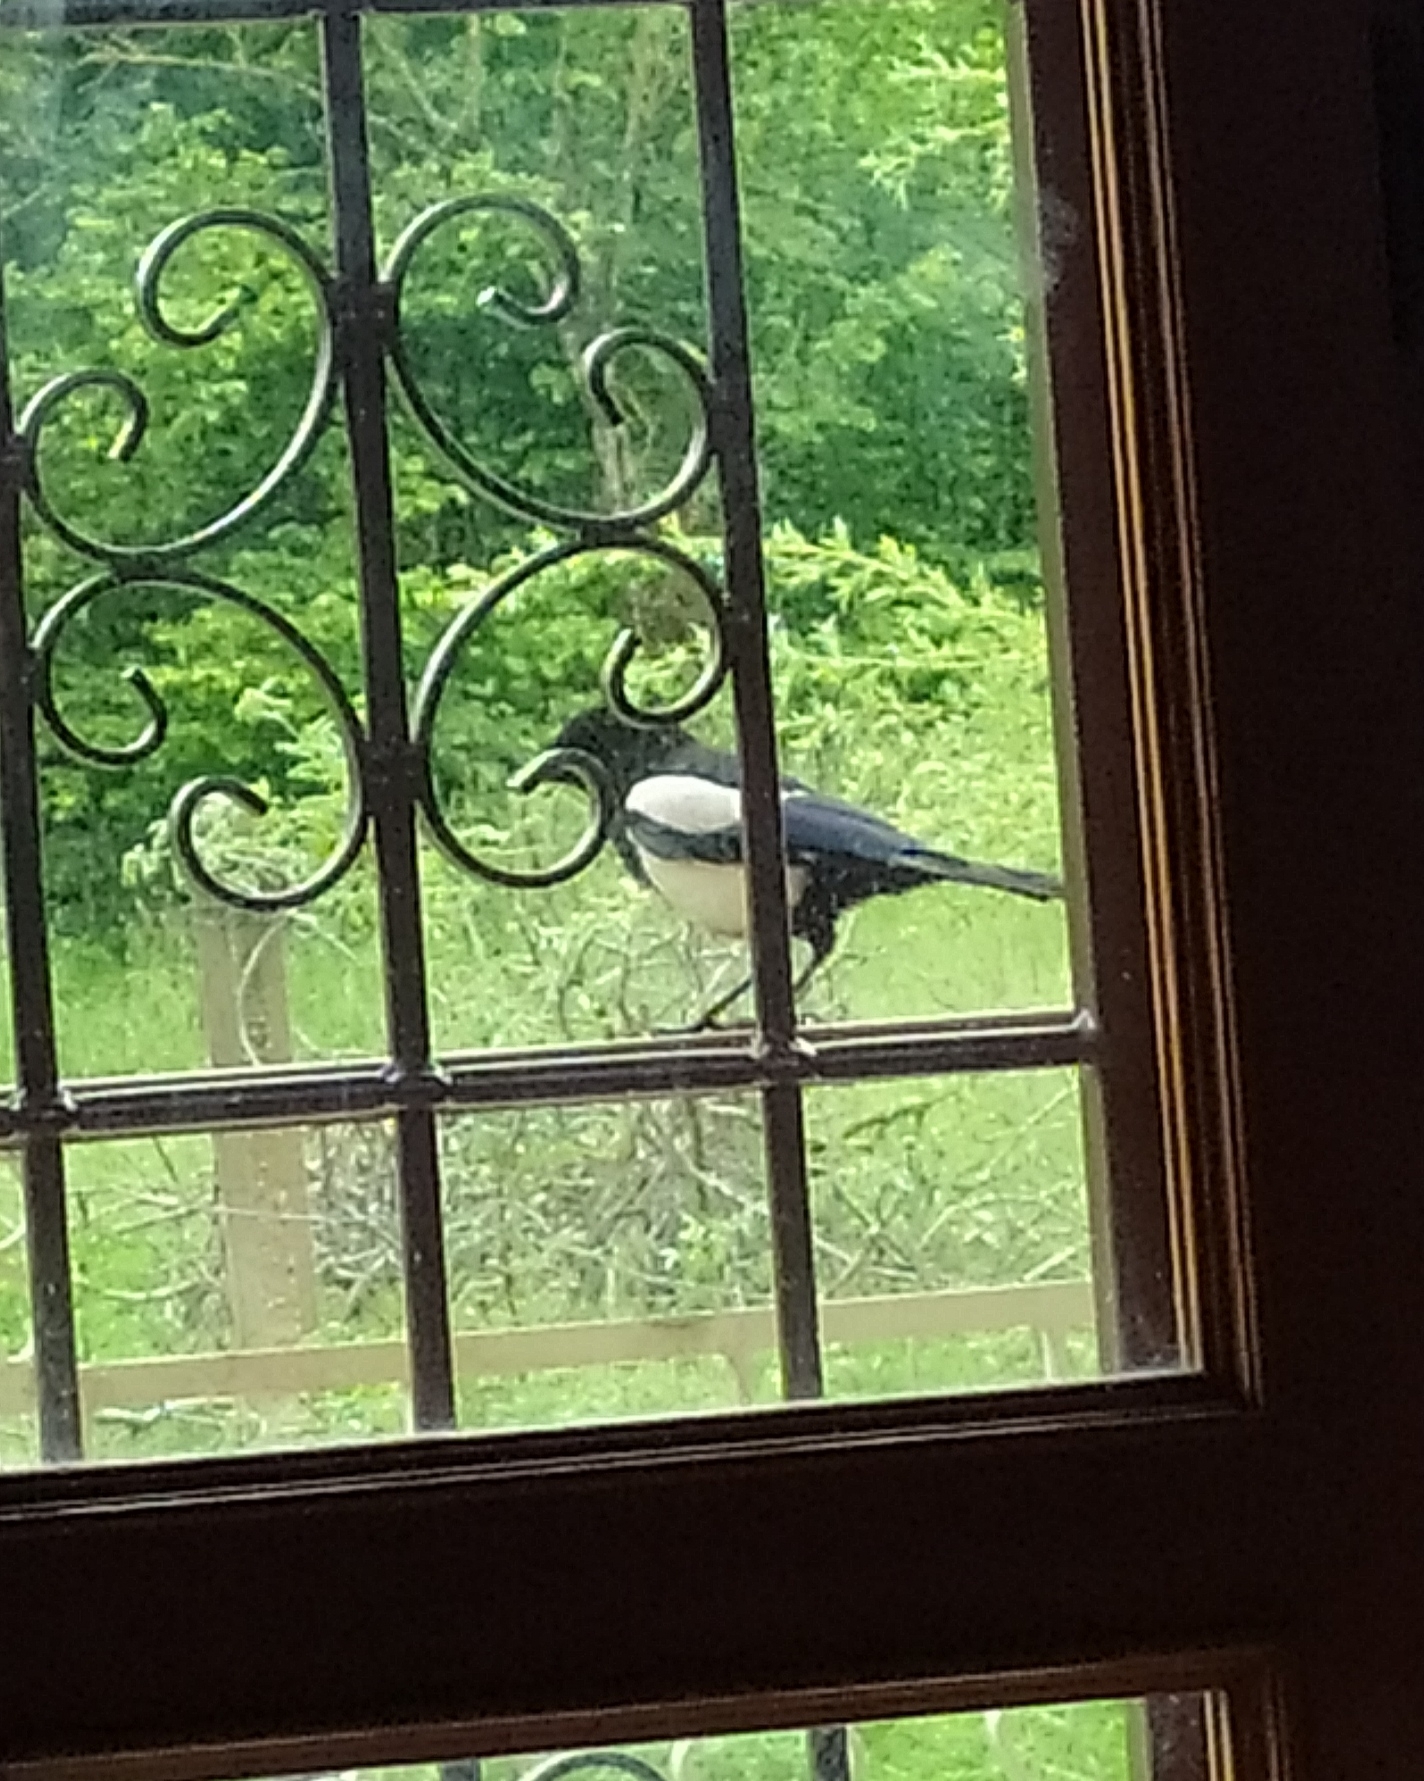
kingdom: Animalia
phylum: Chordata
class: Aves
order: Passeriformes
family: Corvidae
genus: Pica
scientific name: Pica pica
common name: Eurasian magpie
